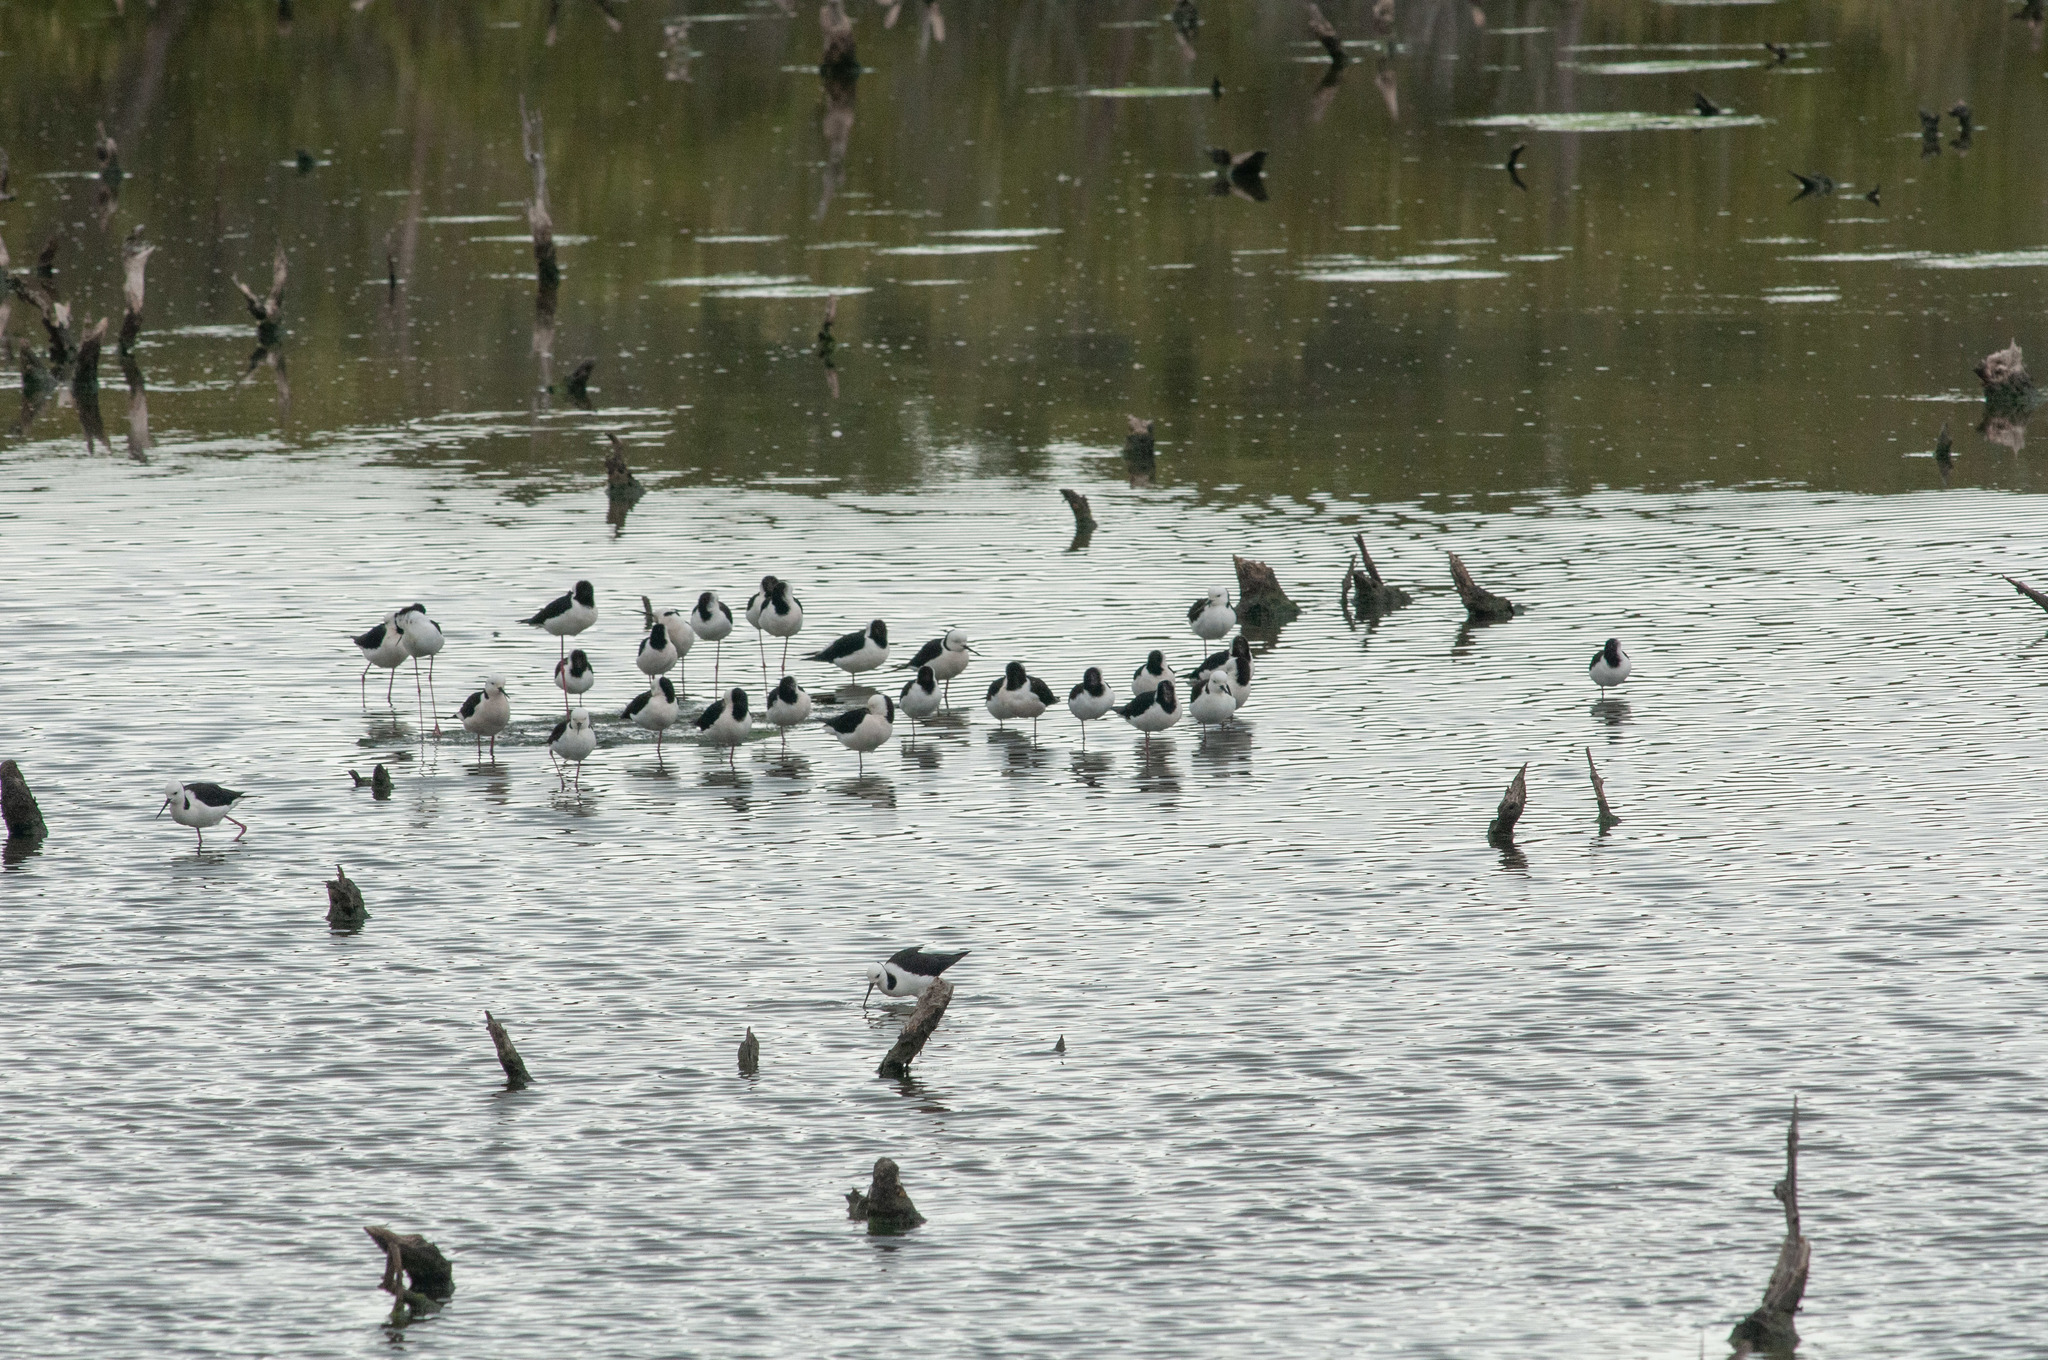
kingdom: Animalia
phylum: Chordata
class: Aves
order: Charadriiformes
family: Recurvirostridae
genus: Himantopus
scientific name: Himantopus leucocephalus
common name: White-headed stilt
